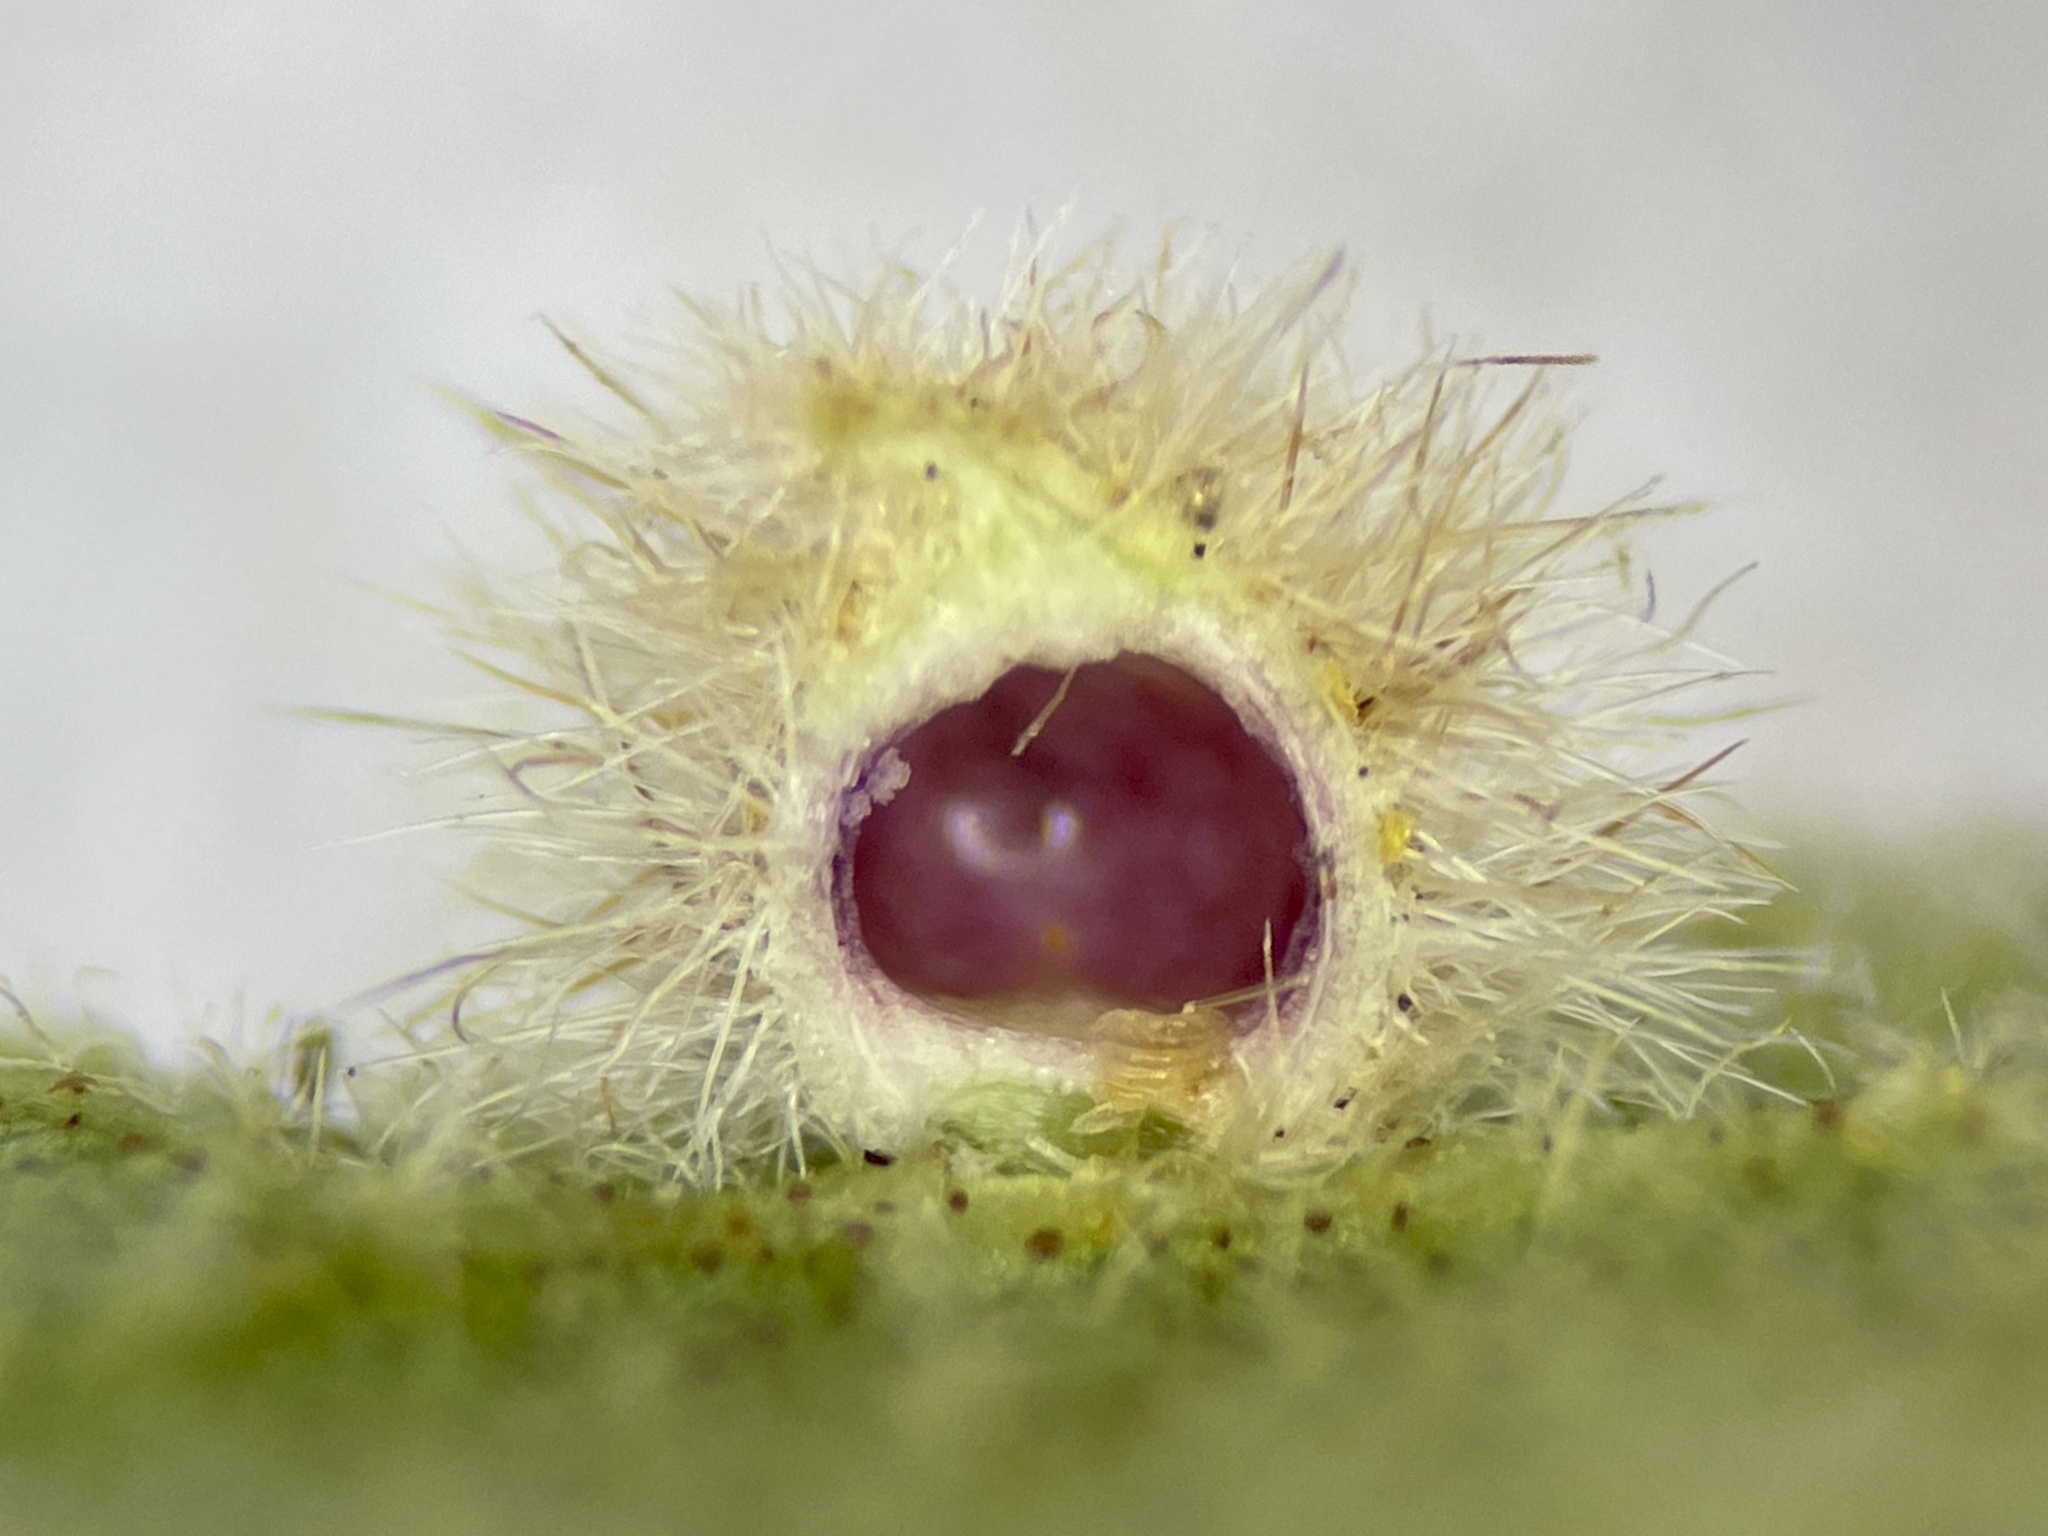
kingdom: Animalia
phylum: Arthropoda
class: Insecta
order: Diptera
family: Cecidomyiidae
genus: Caryomyia
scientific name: Caryomyia purpurea
